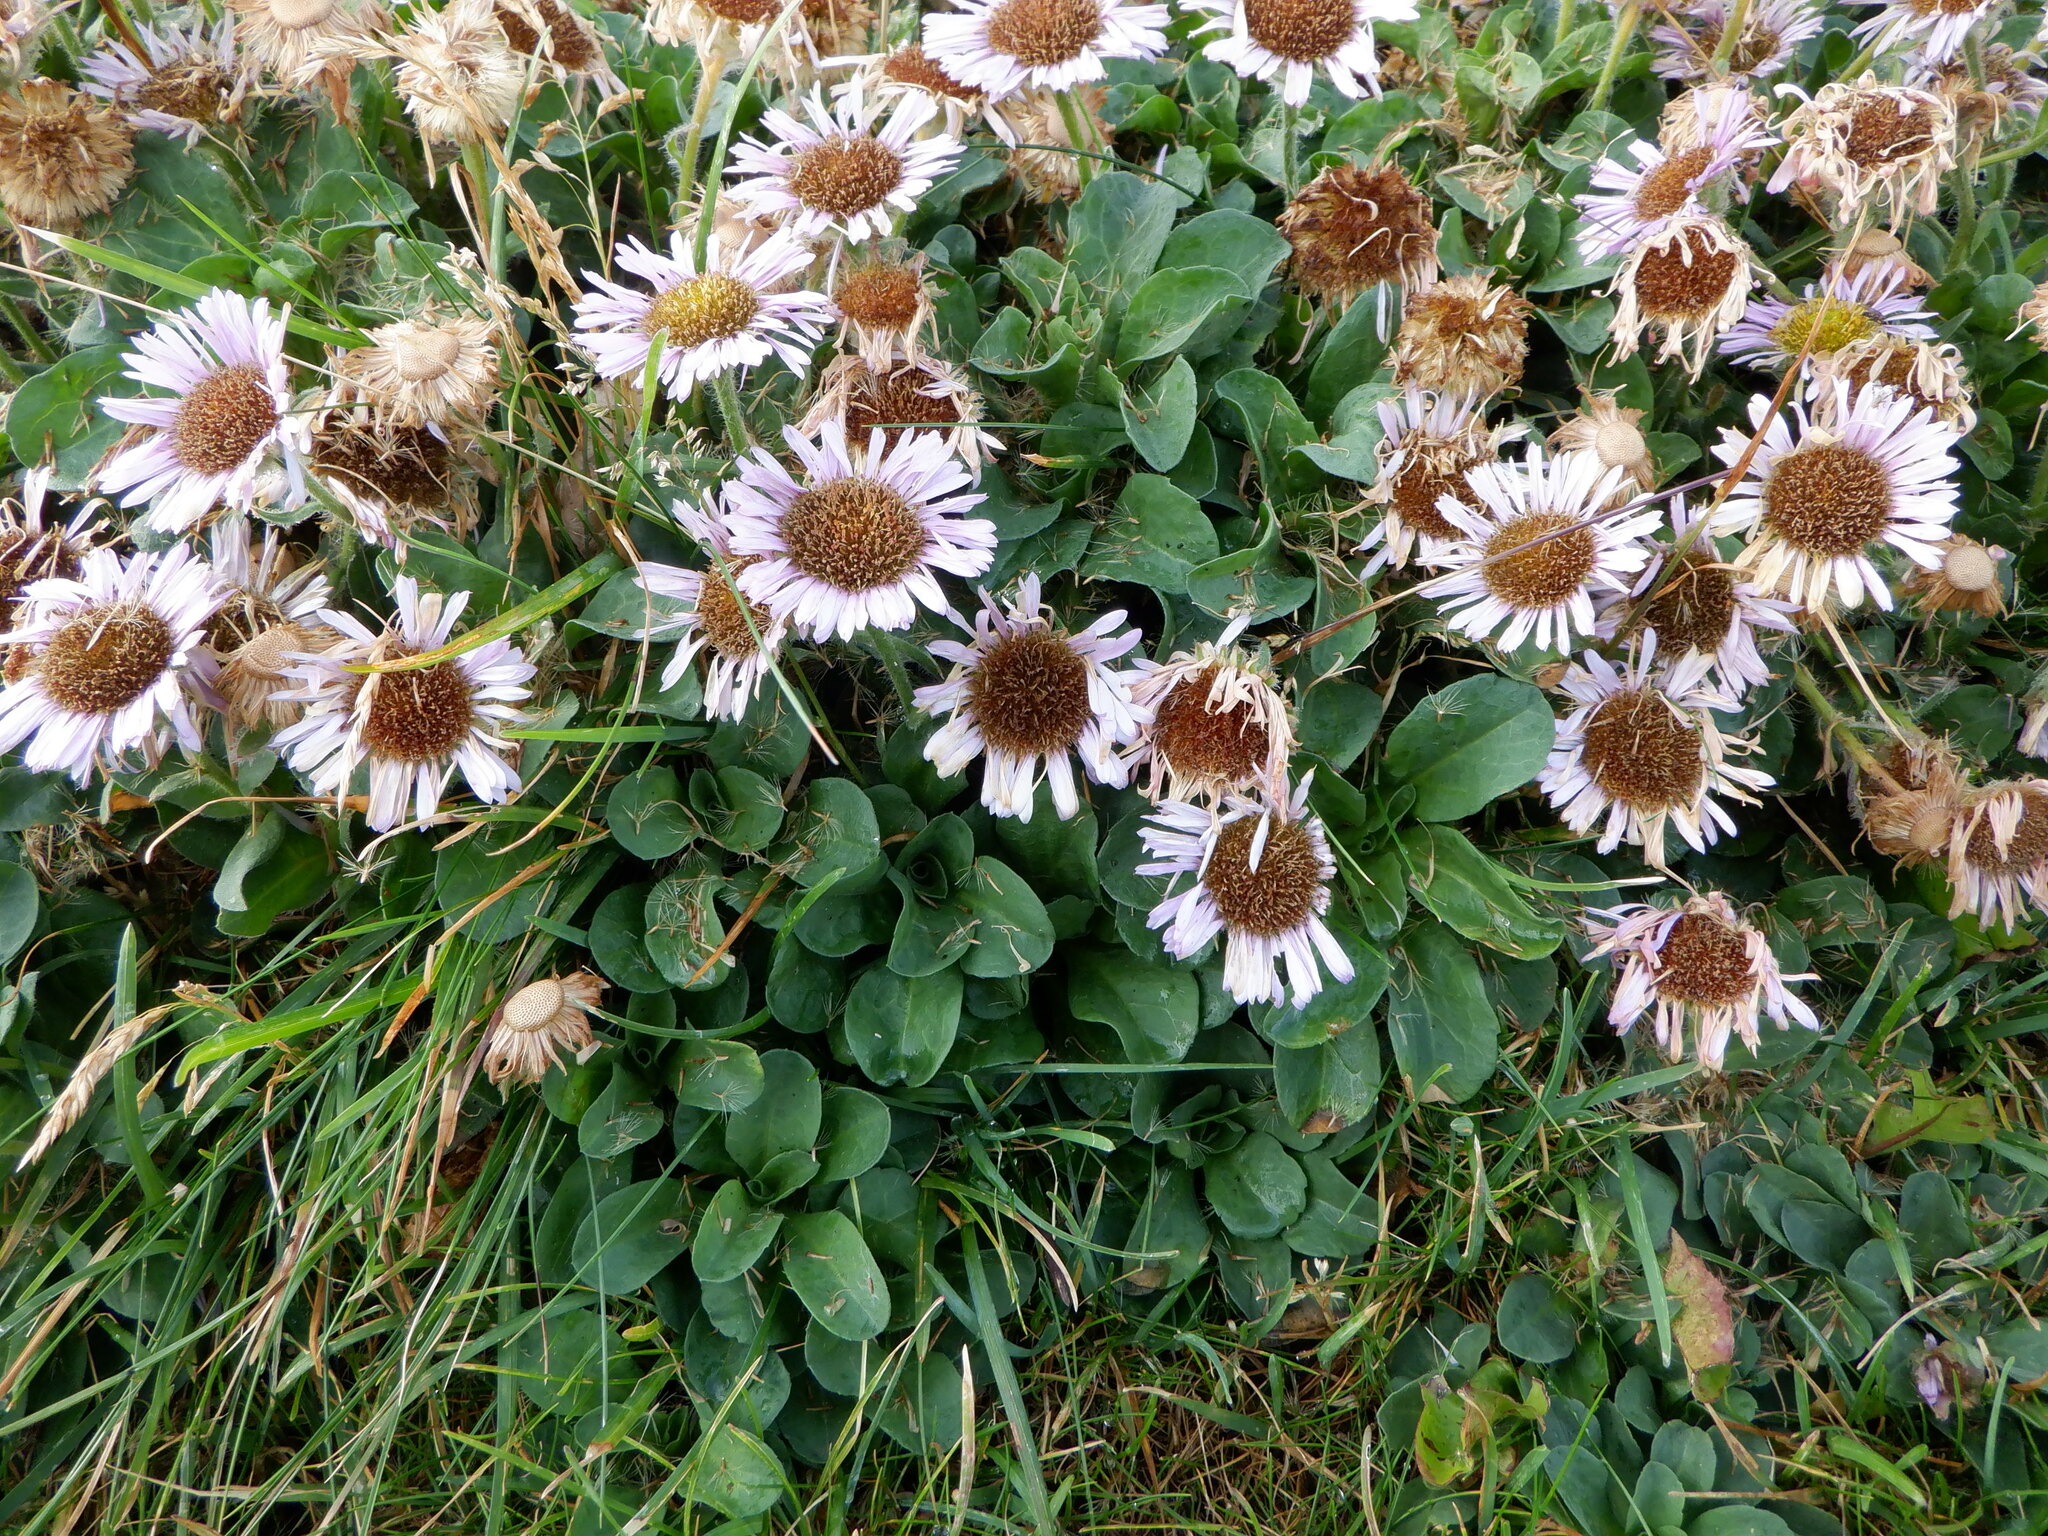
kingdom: Plantae
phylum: Tracheophyta
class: Magnoliopsida
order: Asterales
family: Asteraceae
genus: Erigeron
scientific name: Erigeron glaucus
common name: Seaside daisy
